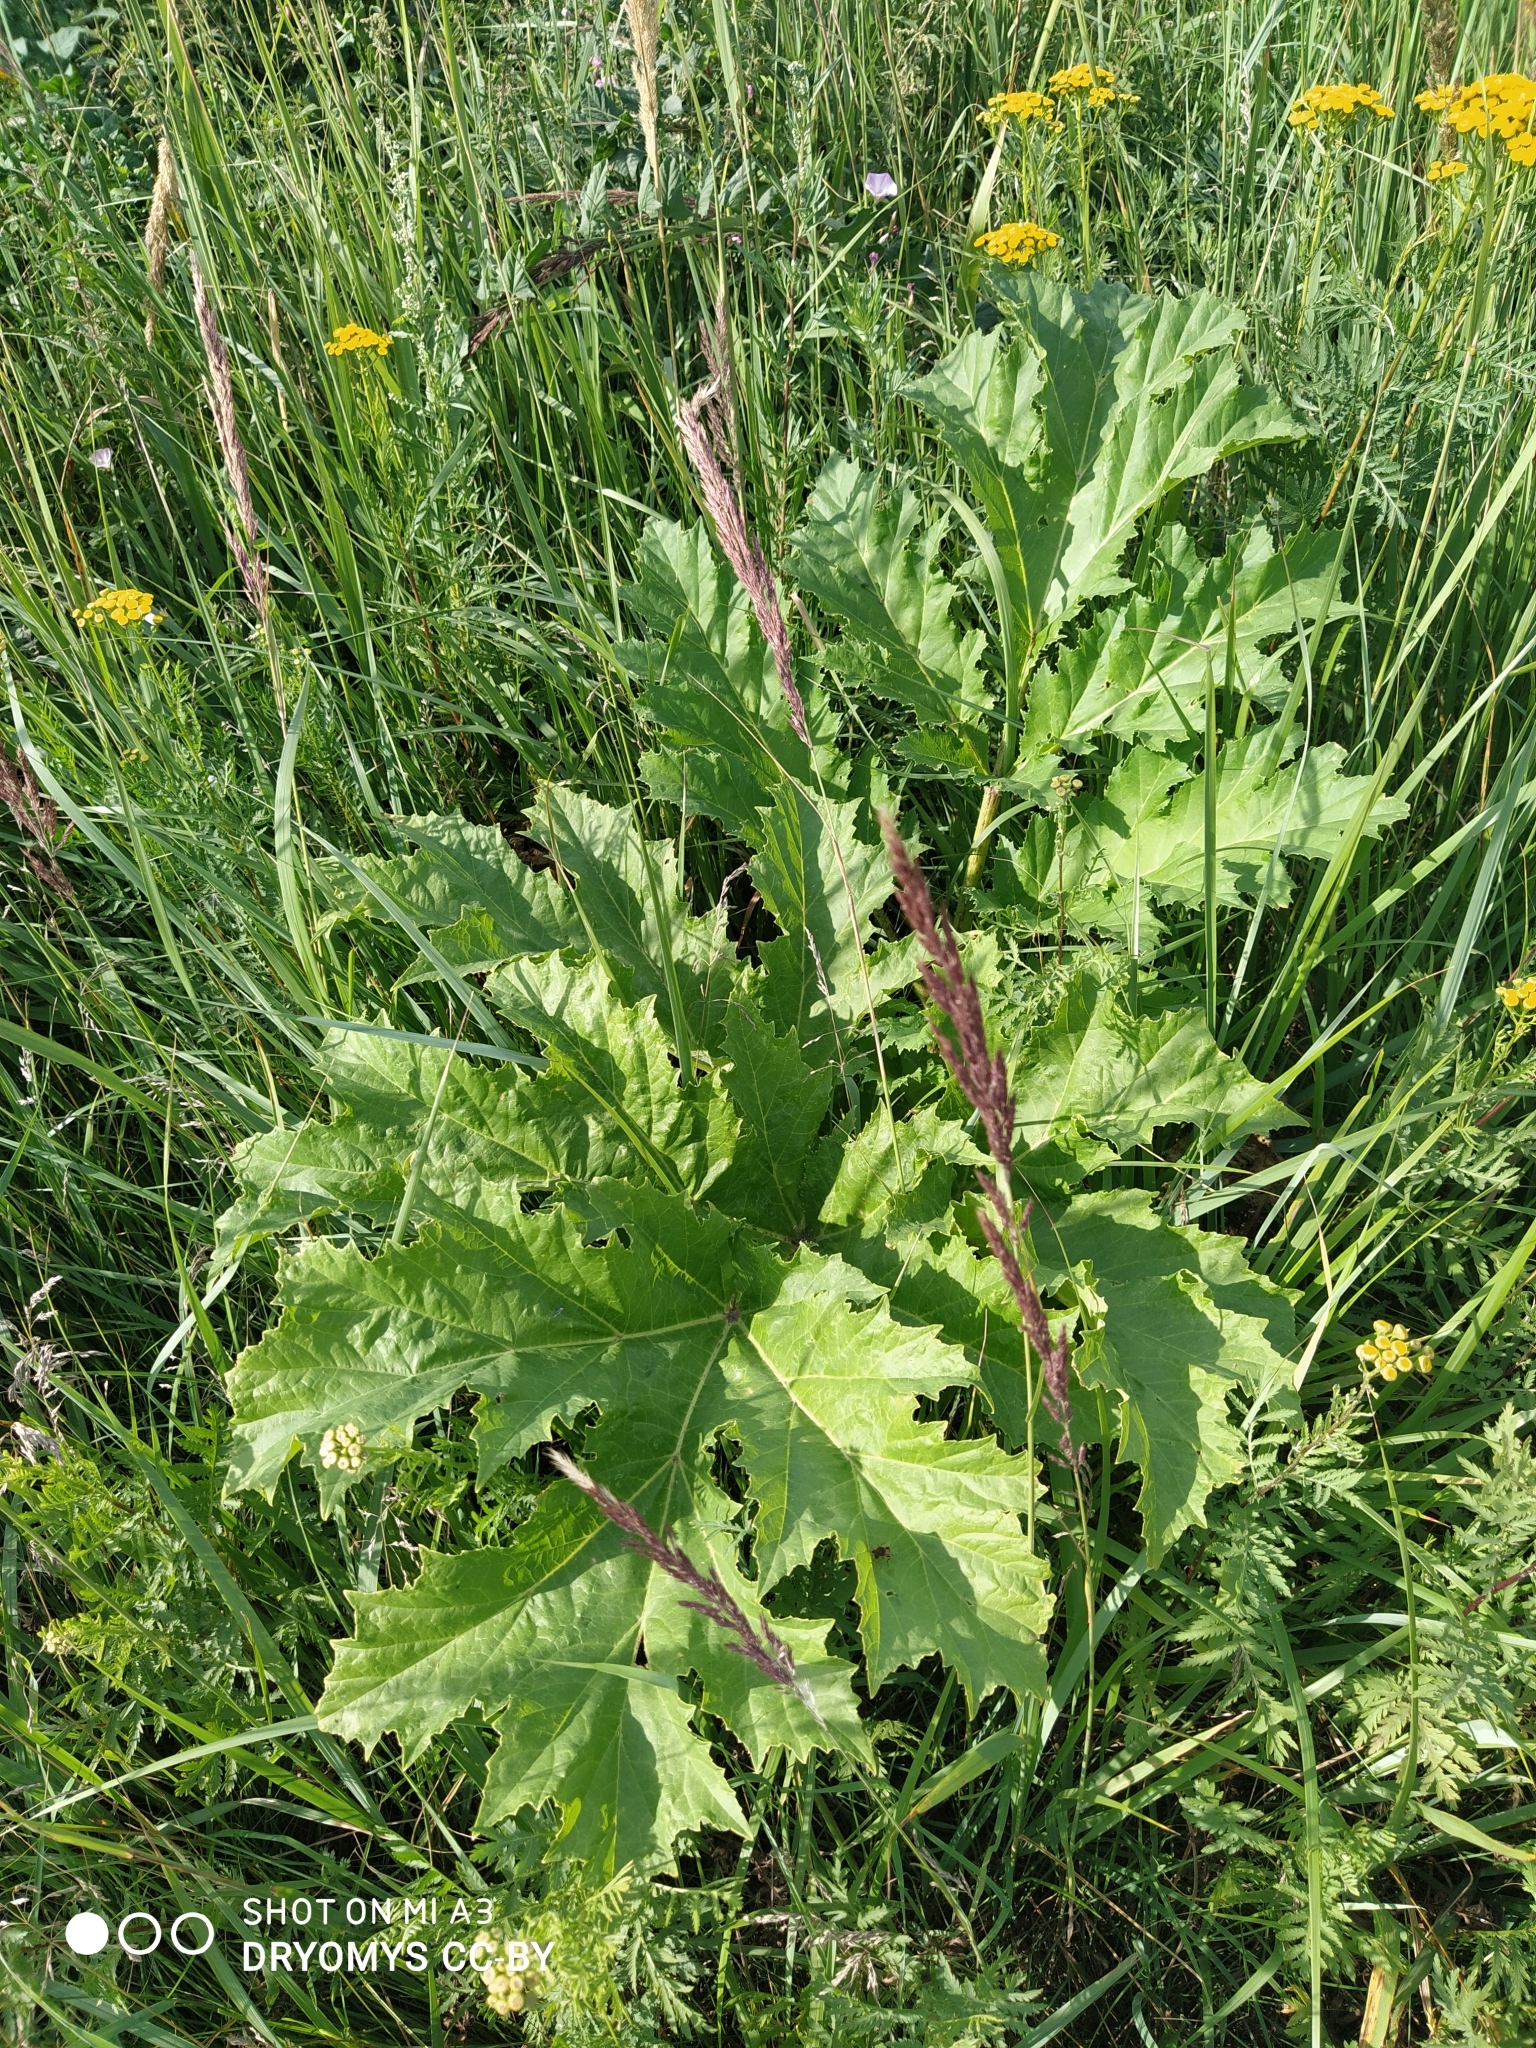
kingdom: Plantae
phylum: Tracheophyta
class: Magnoliopsida
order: Apiales
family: Apiaceae
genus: Heracleum
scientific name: Heracleum sosnowskyi
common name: Sosnowsky's hogweed
